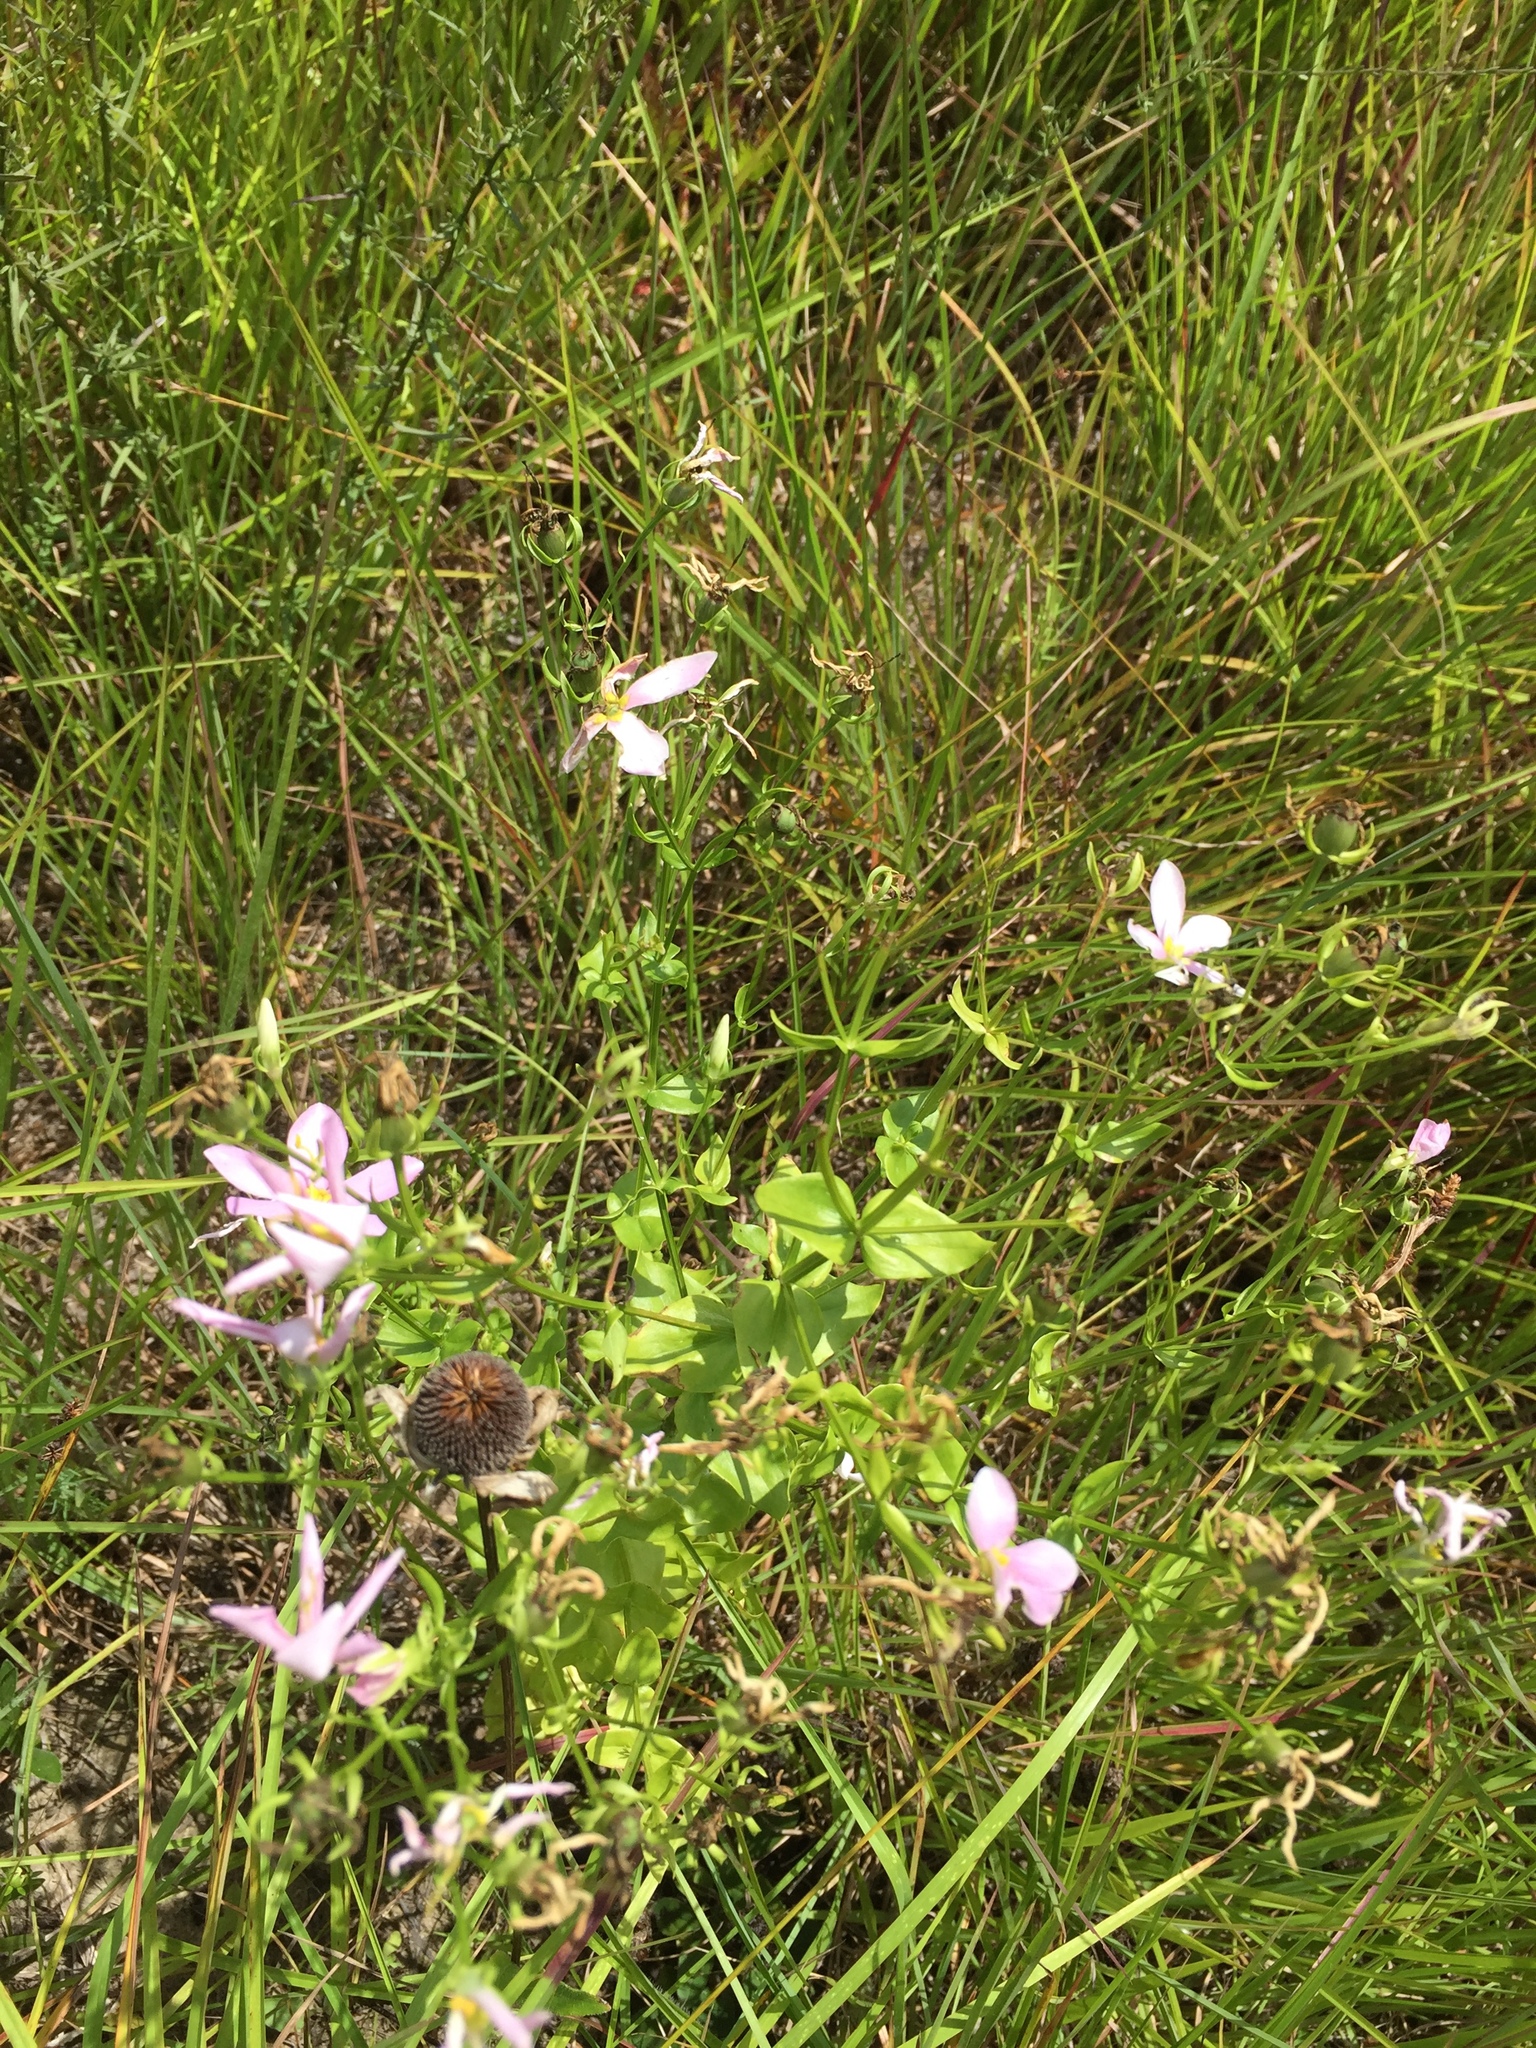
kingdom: Plantae
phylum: Tracheophyta
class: Magnoliopsida
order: Gentianales
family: Gentianaceae
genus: Sabatia
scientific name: Sabatia angularis
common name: Rose-pink
